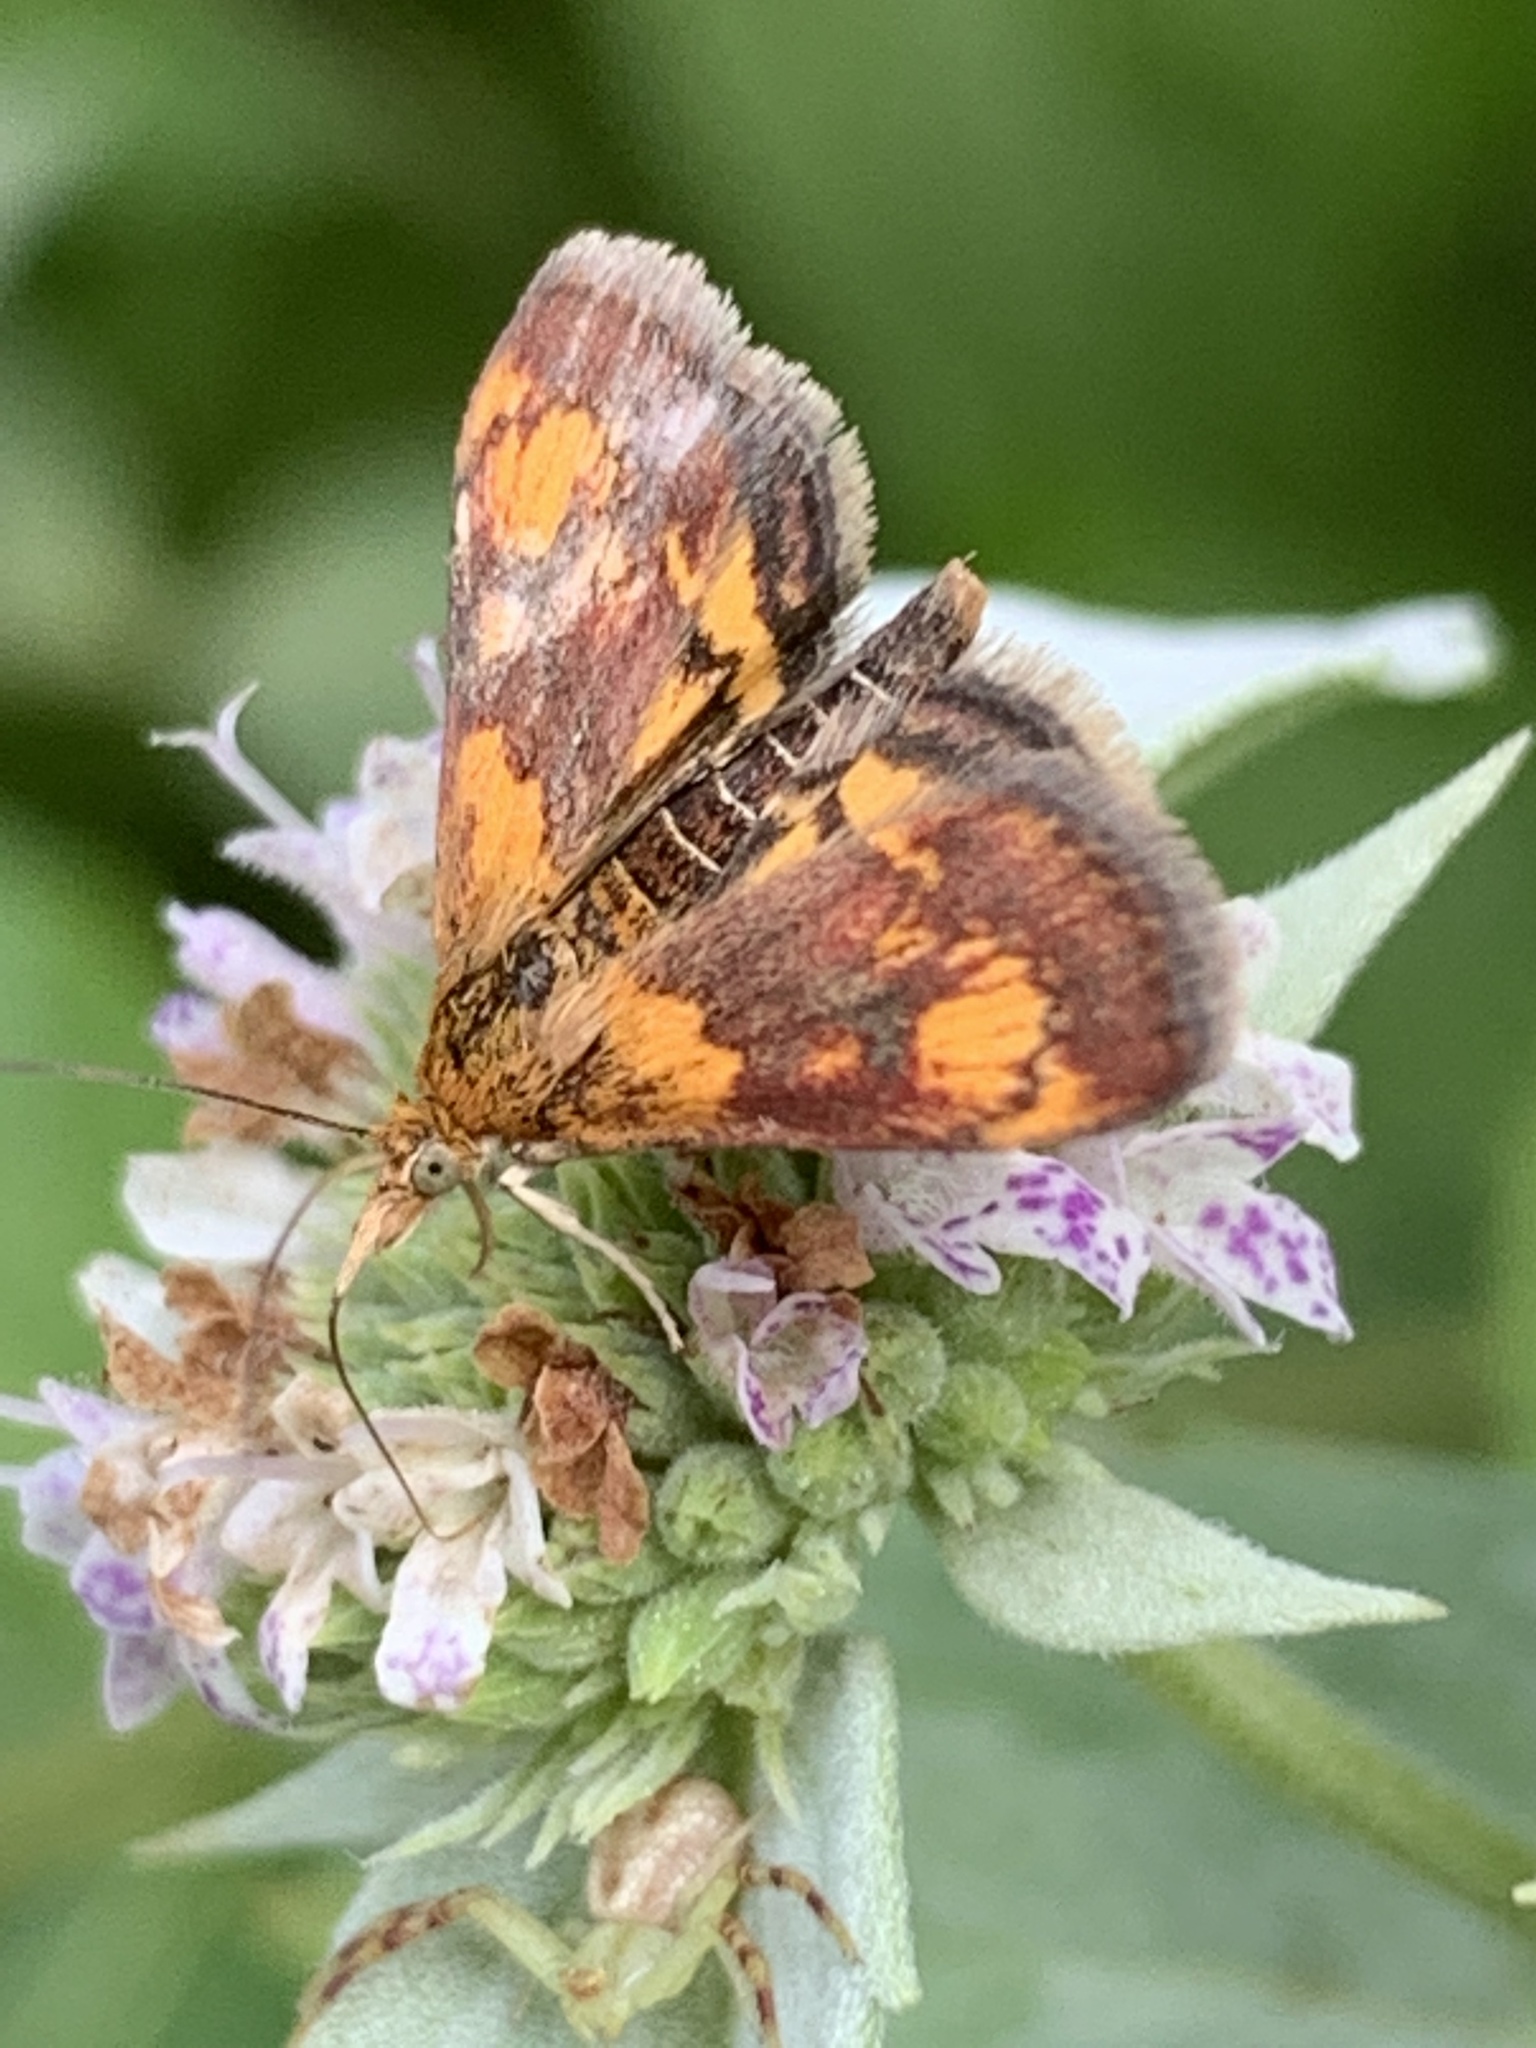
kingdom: Animalia
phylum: Arthropoda
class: Insecta
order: Lepidoptera
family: Crambidae
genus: Pyrausta
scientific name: Pyrausta orphisalis
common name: Orange mint moth
